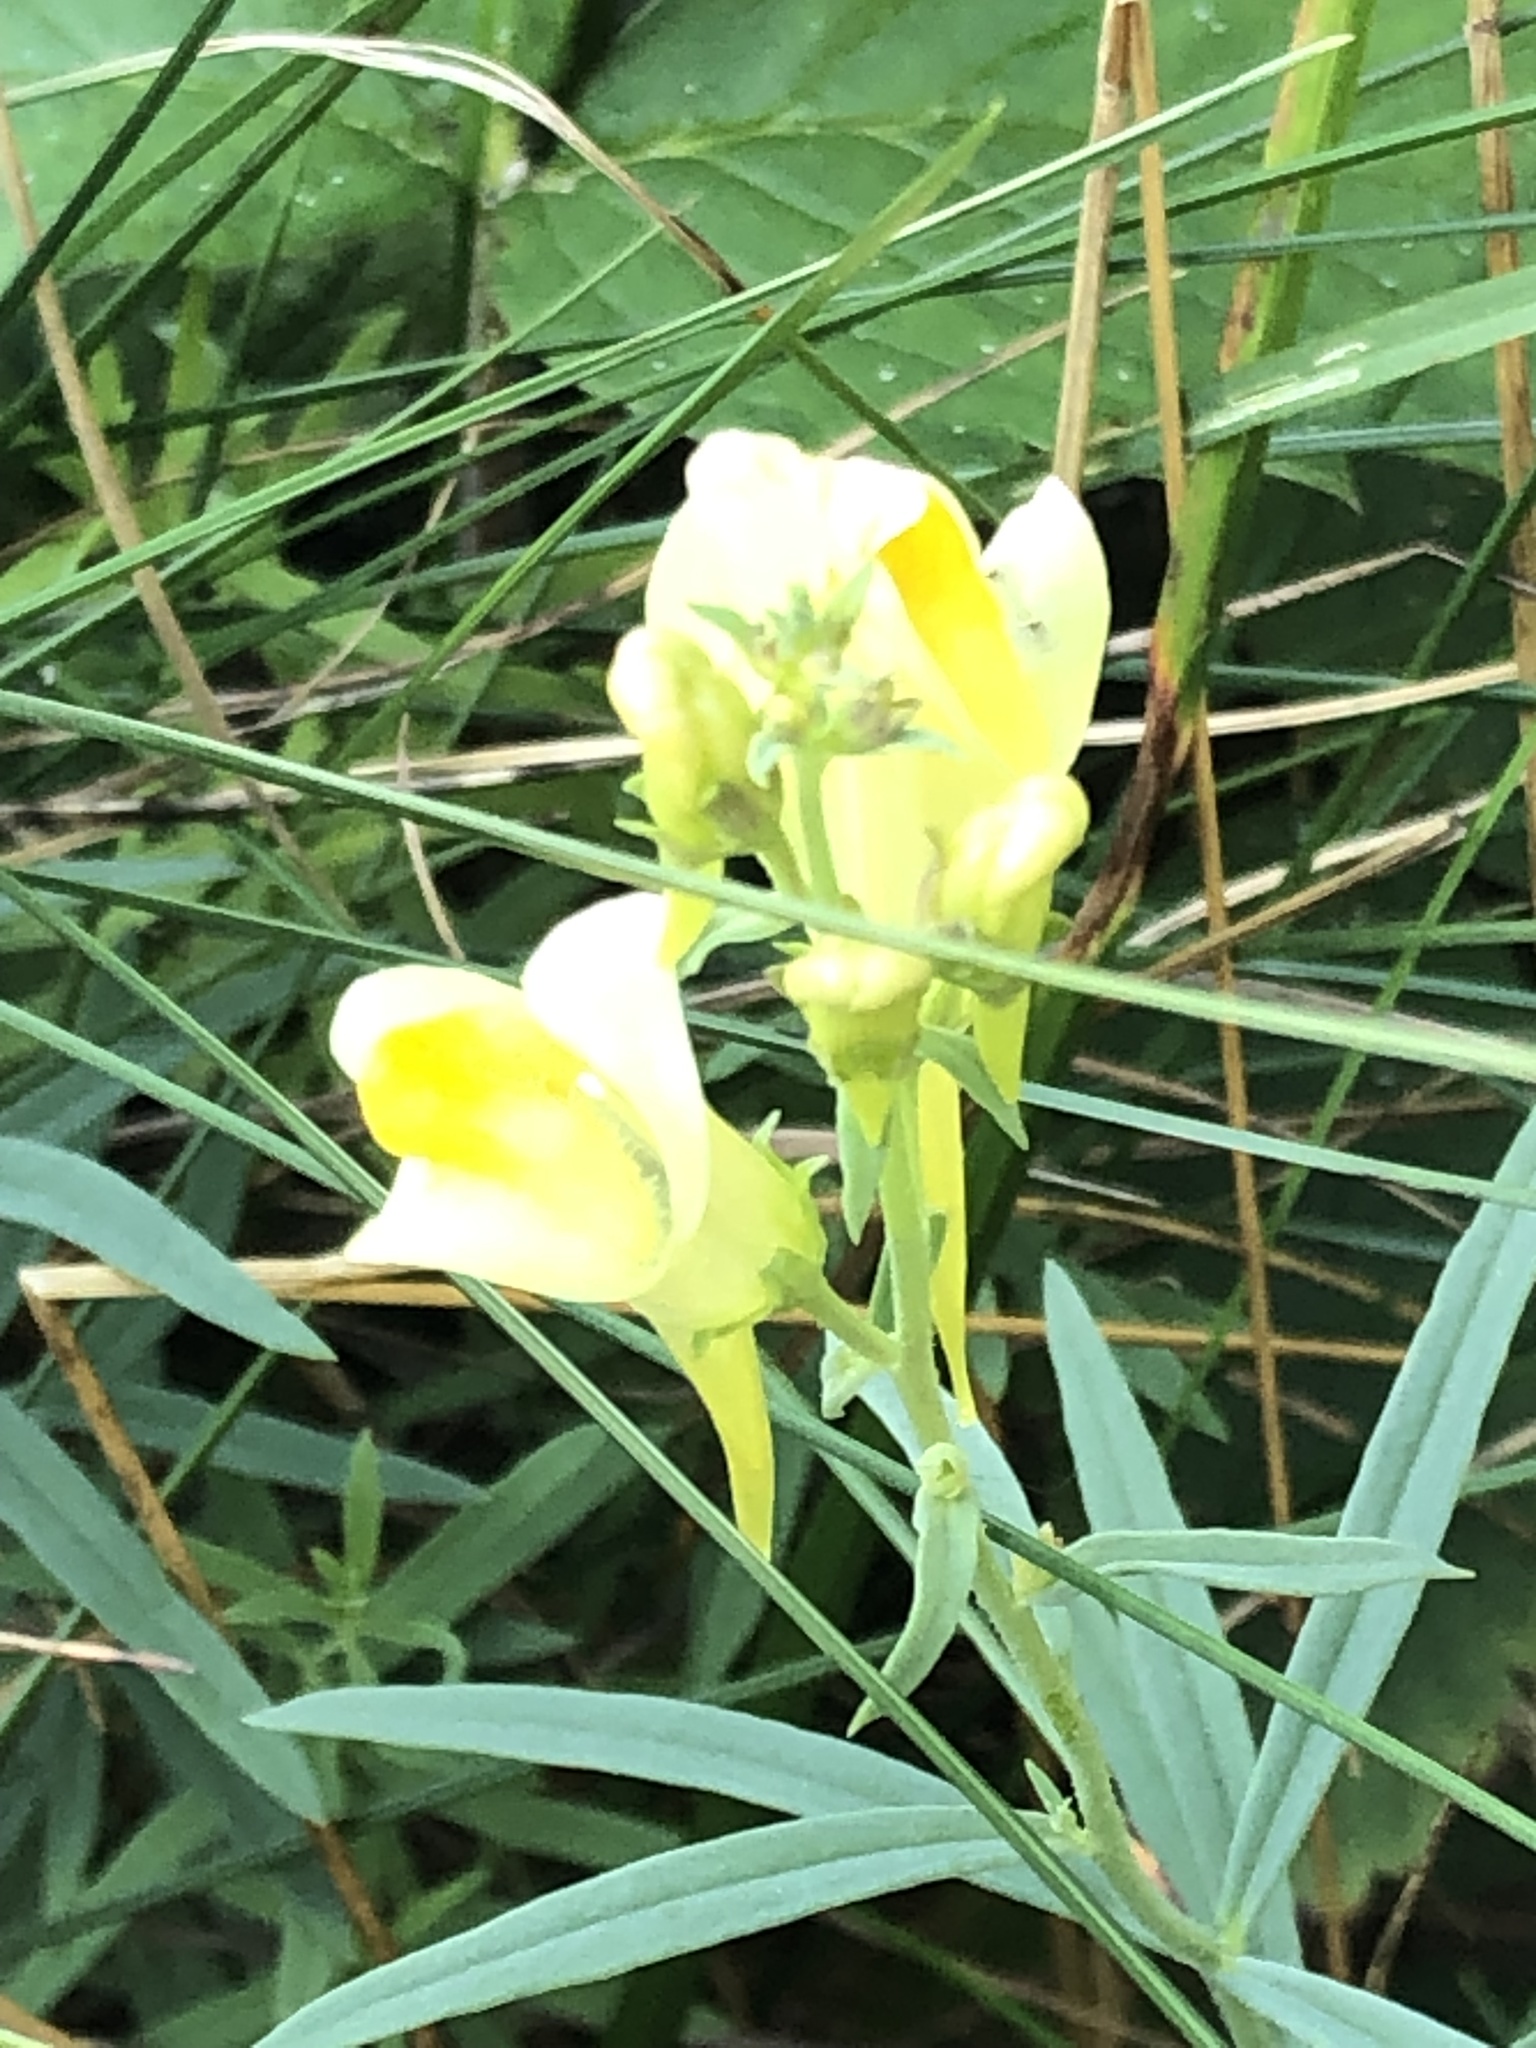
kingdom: Plantae
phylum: Tracheophyta
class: Magnoliopsida
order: Lamiales
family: Plantaginaceae
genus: Linaria
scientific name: Linaria vulgaris
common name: Butter and eggs
